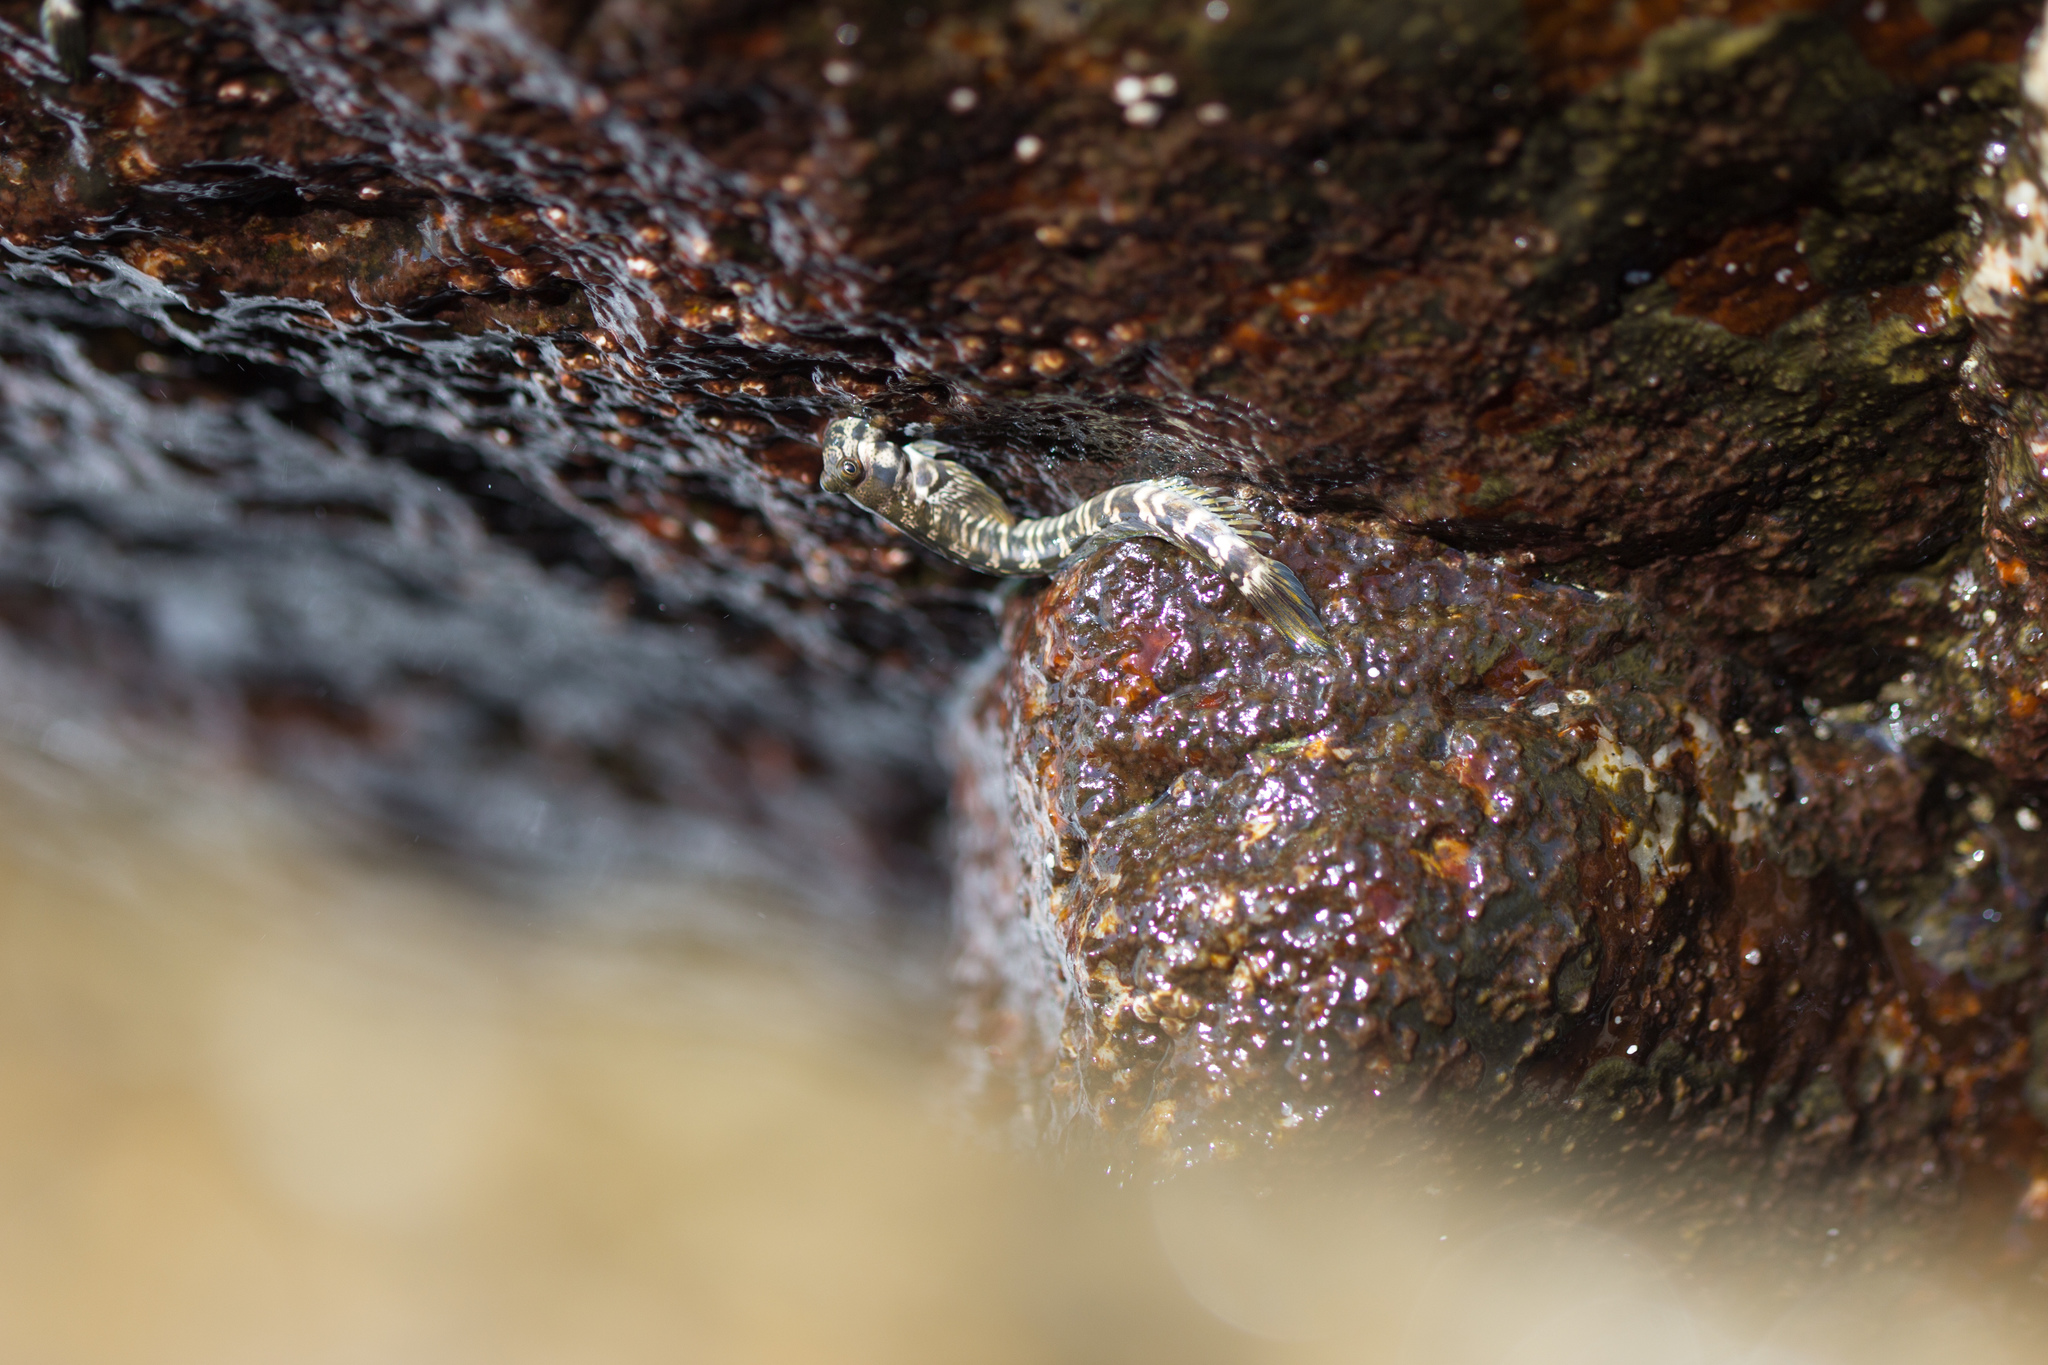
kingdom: Animalia
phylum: Chordata
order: Perciformes
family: Blenniidae
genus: Alticus
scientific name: Alticus monochrus
